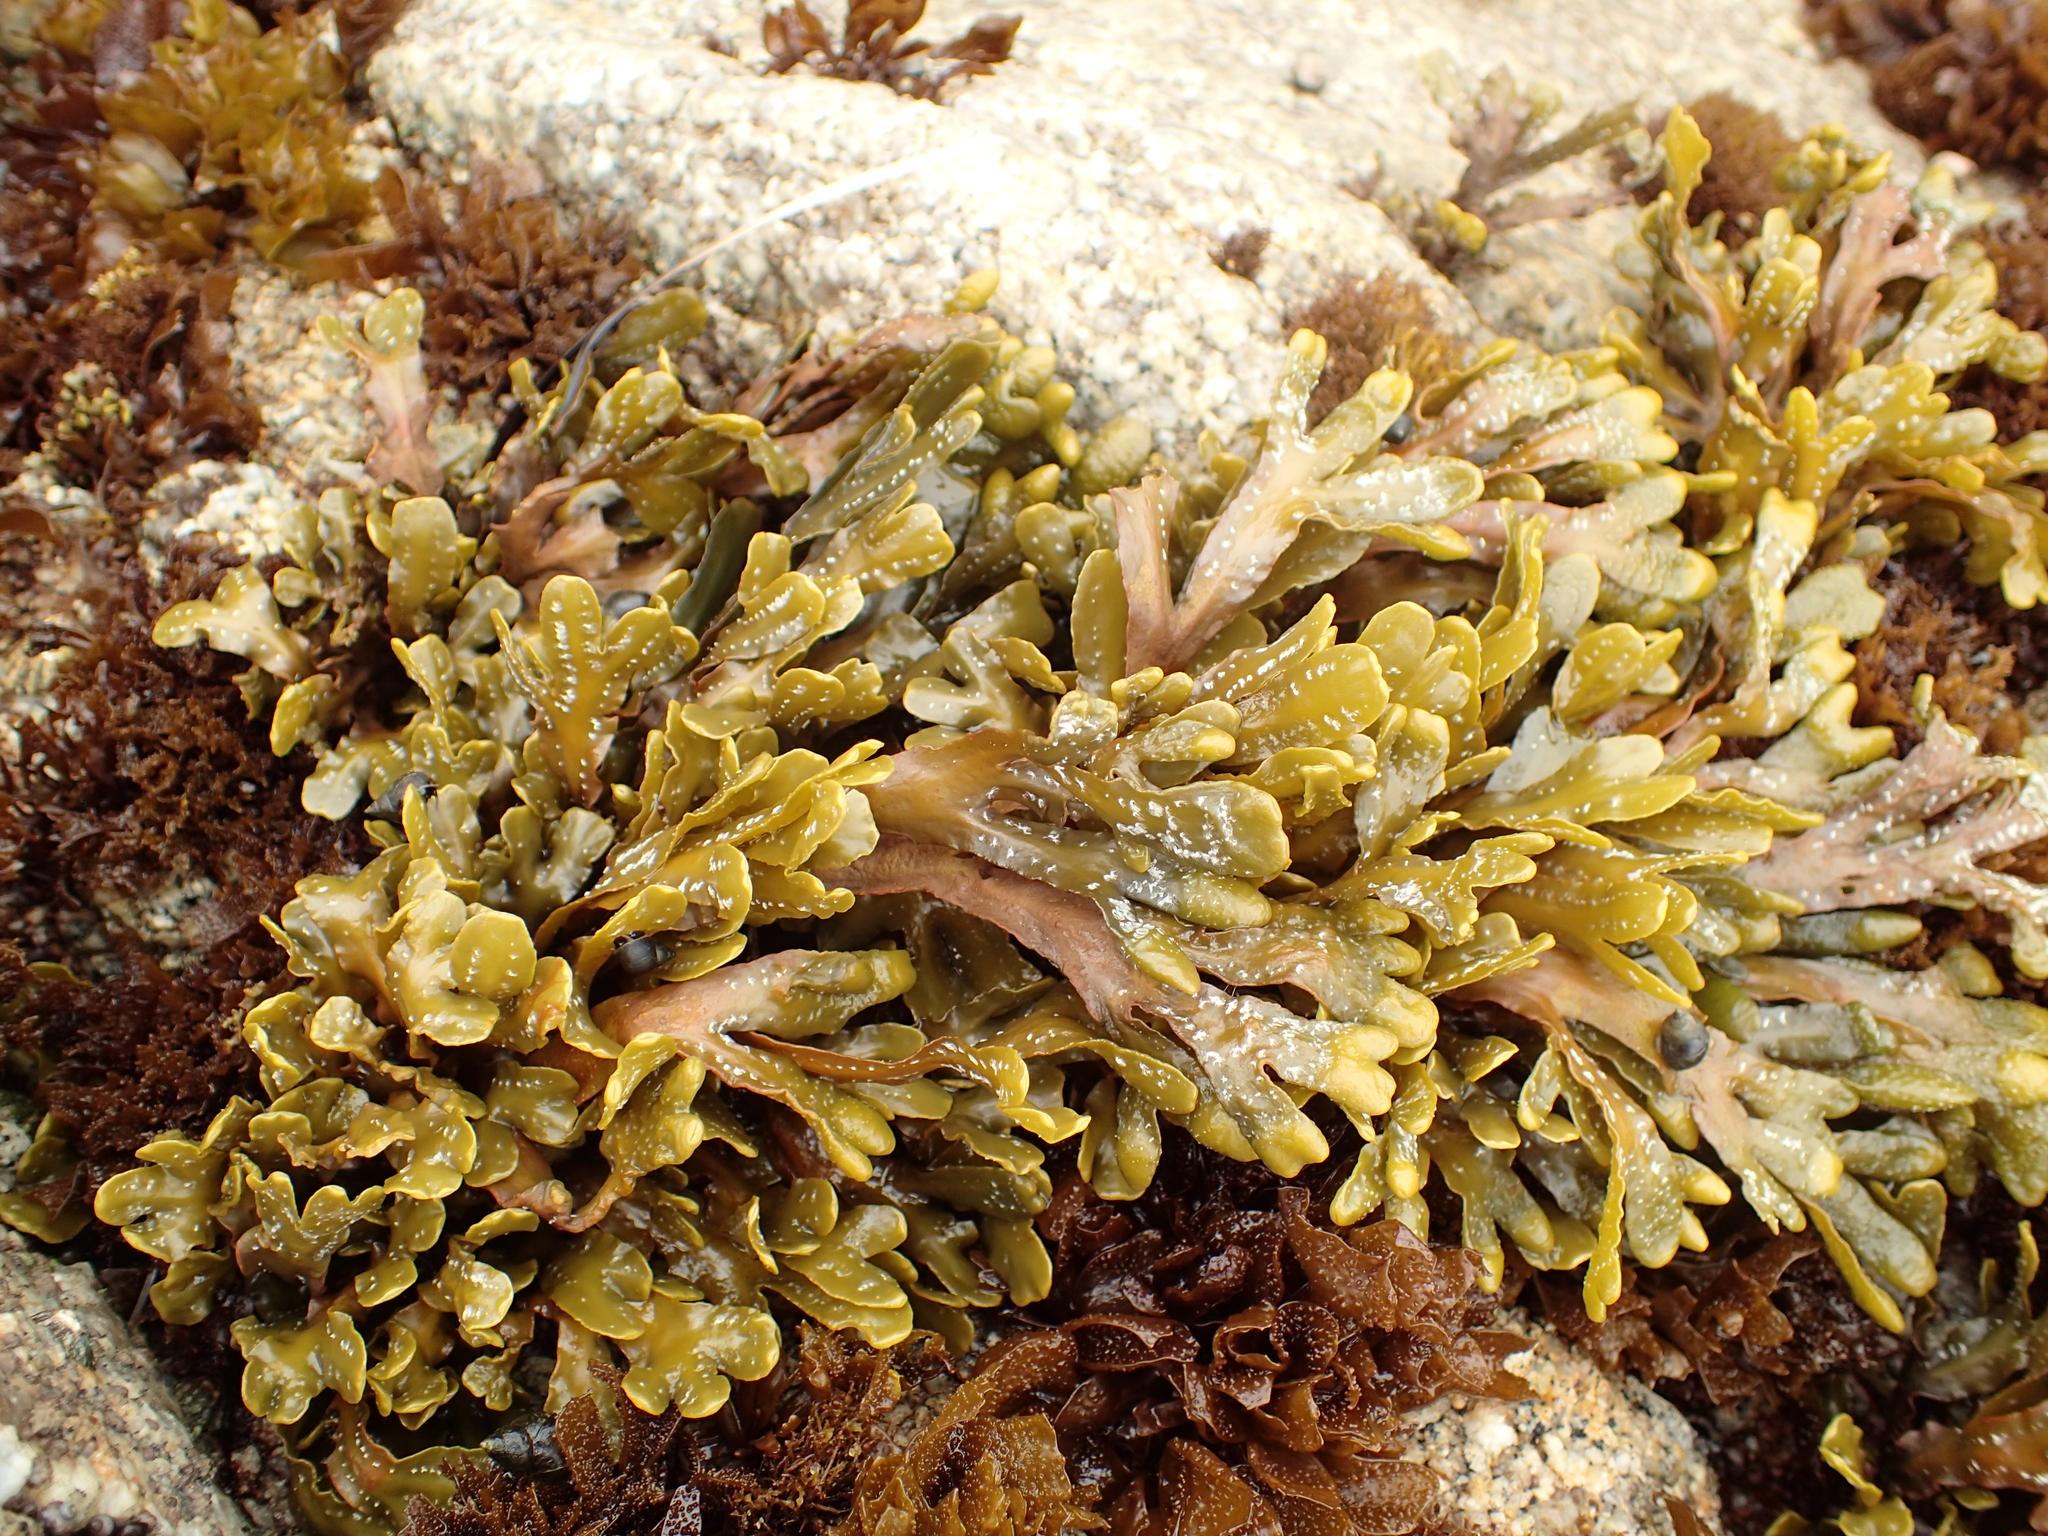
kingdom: Chromista
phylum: Ochrophyta
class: Phaeophyceae
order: Fucales
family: Fucaceae
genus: Pelvetiopsis
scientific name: Pelvetiopsis
